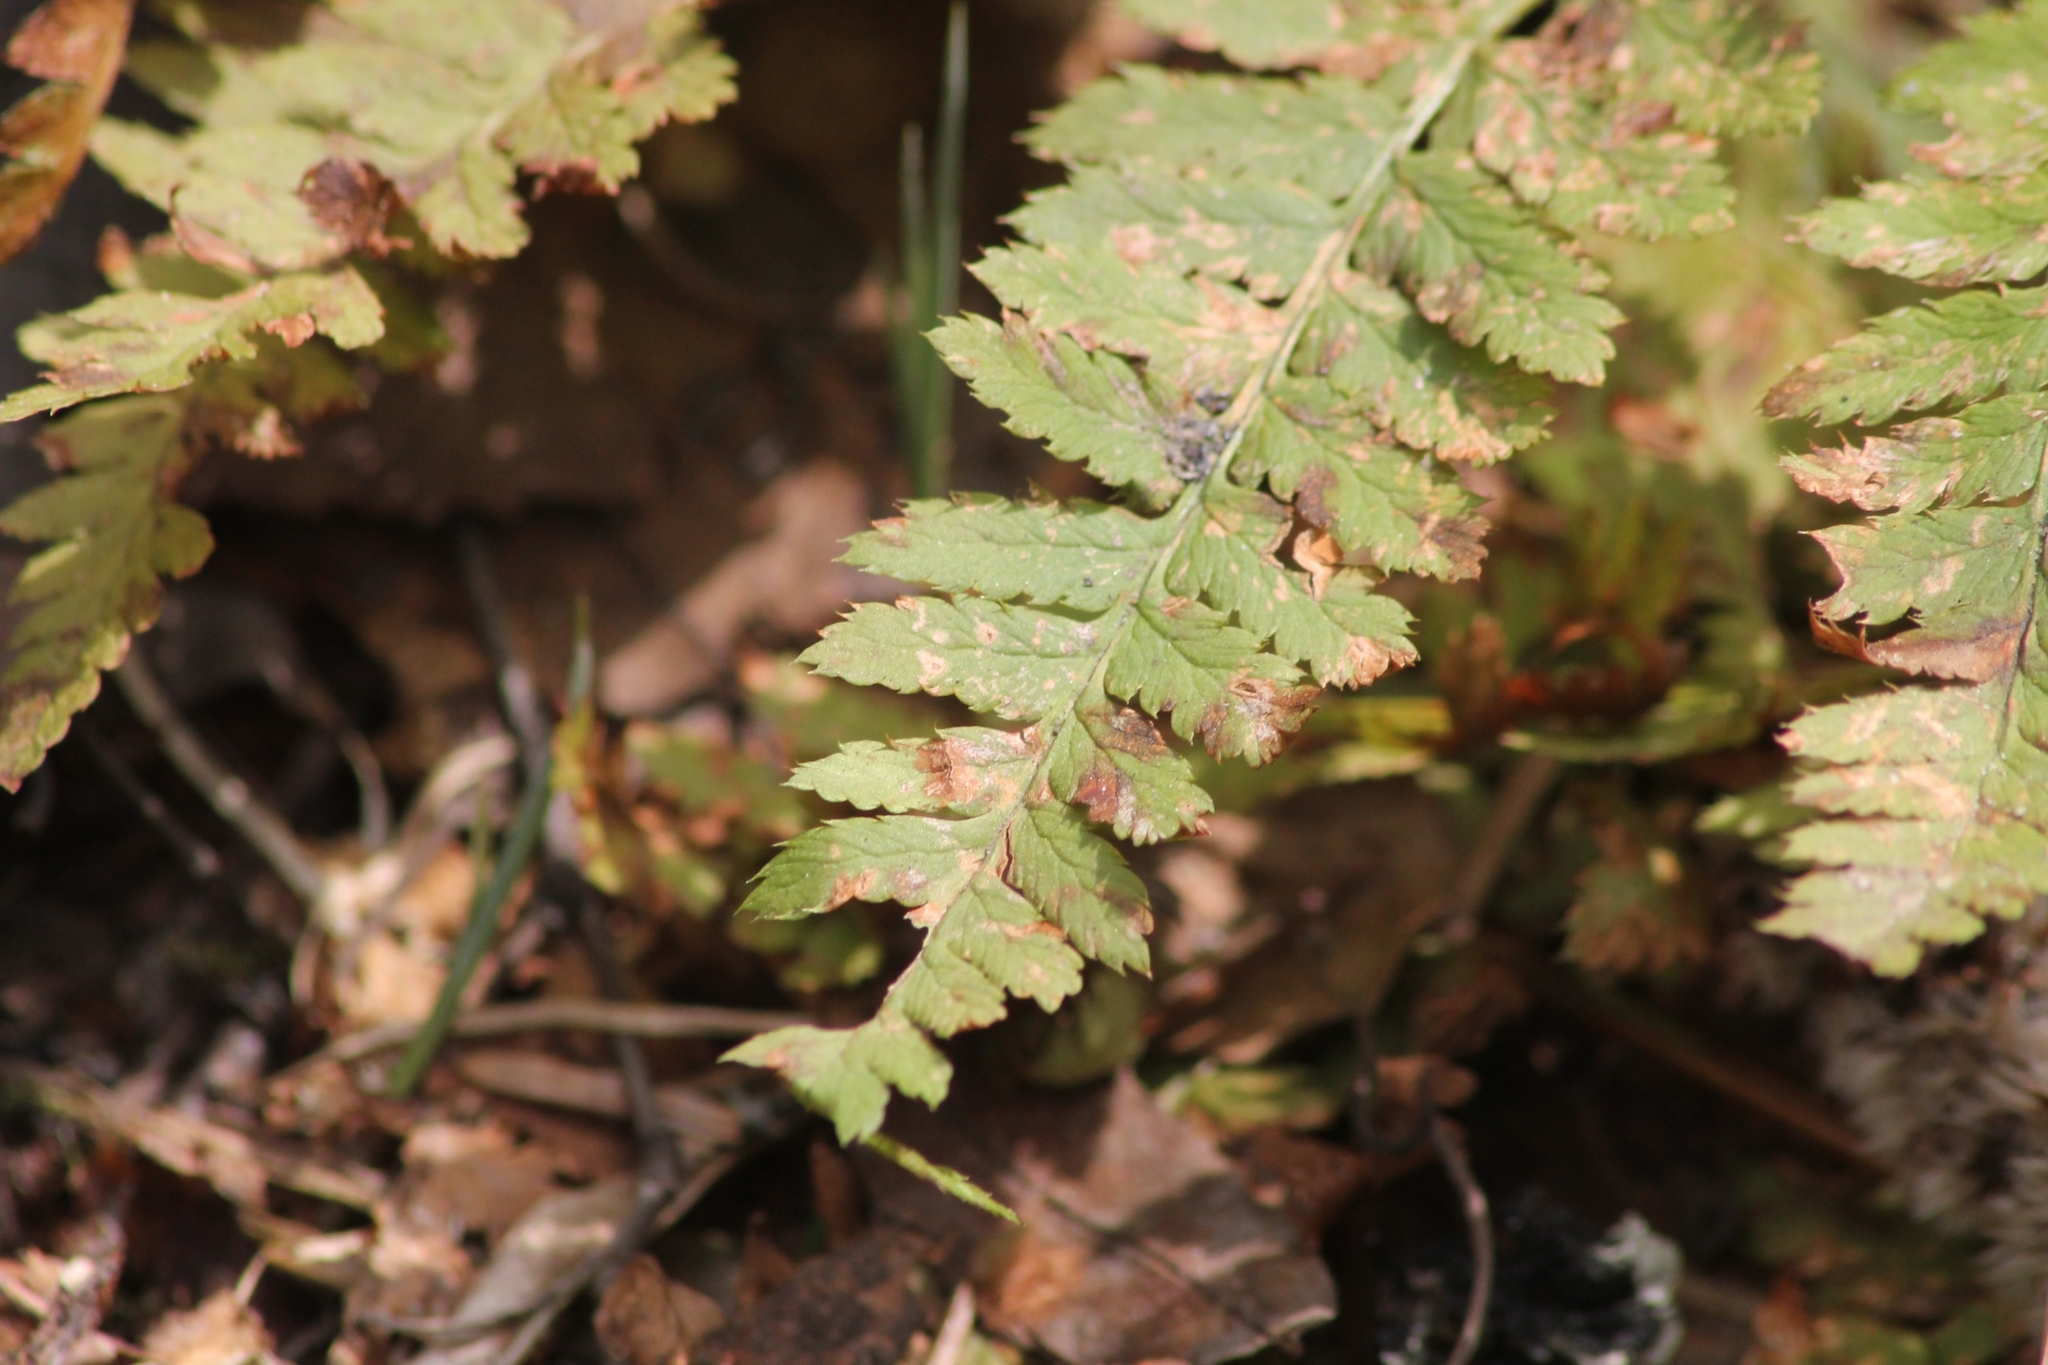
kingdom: Plantae
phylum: Tracheophyta
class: Polypodiopsida
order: Polypodiales
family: Dryopteridaceae
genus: Dryopteris
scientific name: Dryopteris carthusiana
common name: Narrow buckler-fern
